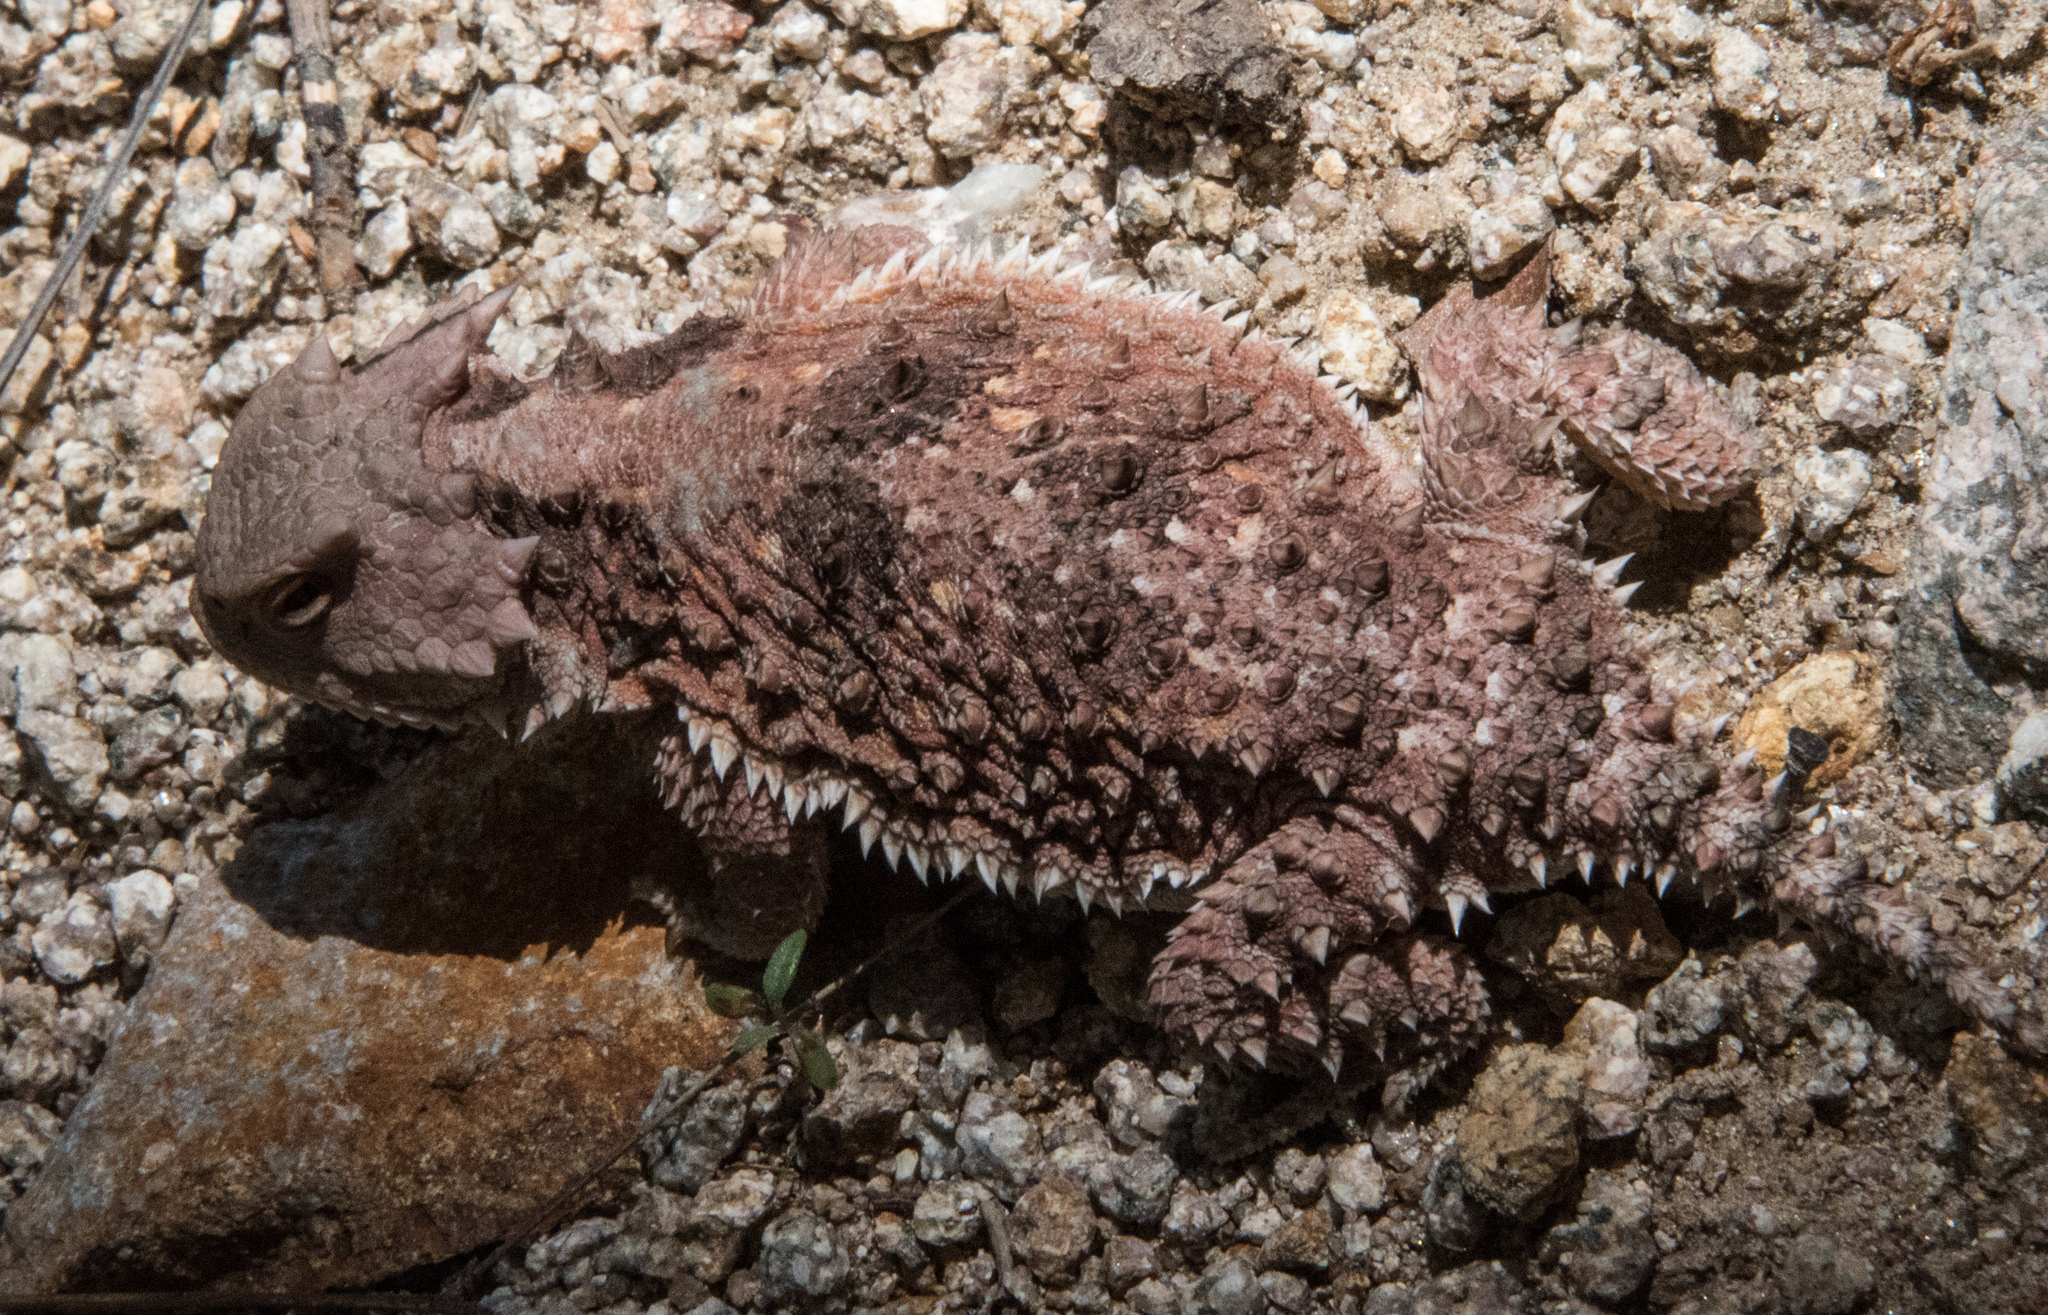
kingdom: Animalia
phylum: Chordata
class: Squamata
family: Phrynosomatidae
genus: Phrynosoma
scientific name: Phrynosoma hernandesi
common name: Greater short-horned lizard
